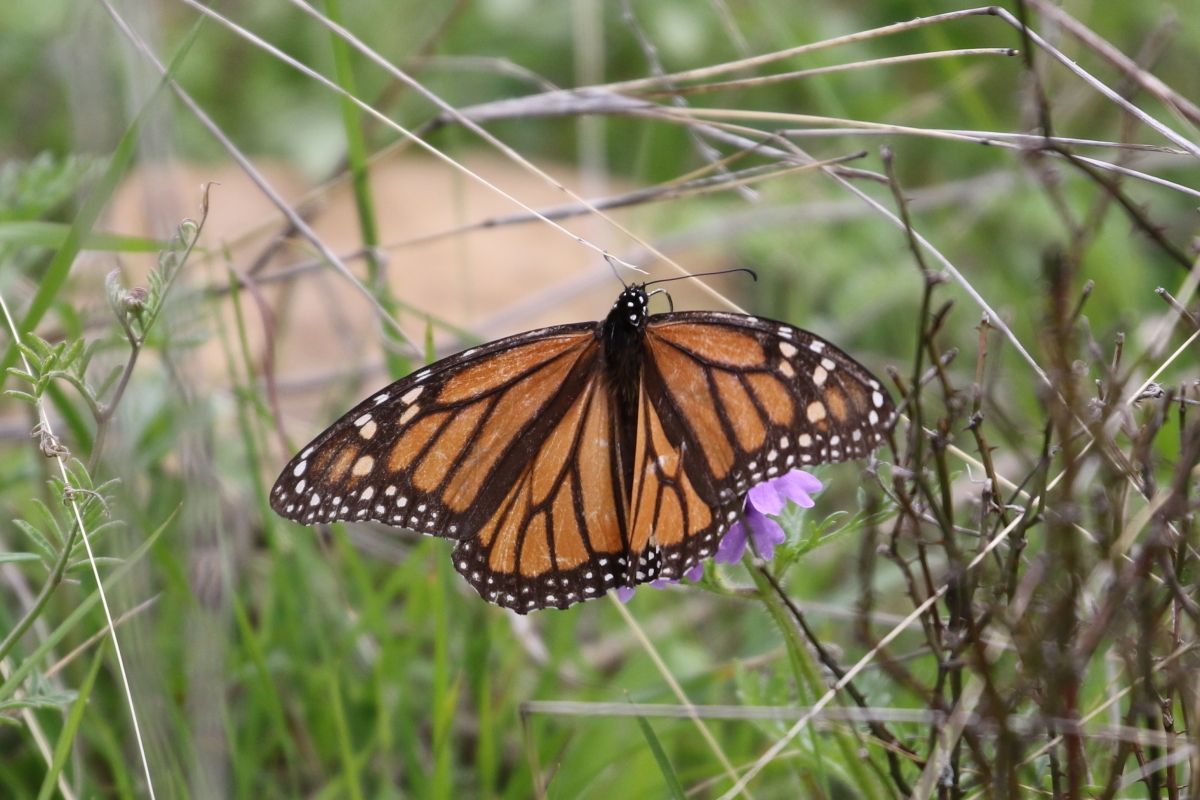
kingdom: Animalia
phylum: Arthropoda
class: Insecta
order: Lepidoptera
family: Nymphalidae
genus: Danaus
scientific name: Danaus plexippus
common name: Monarch
